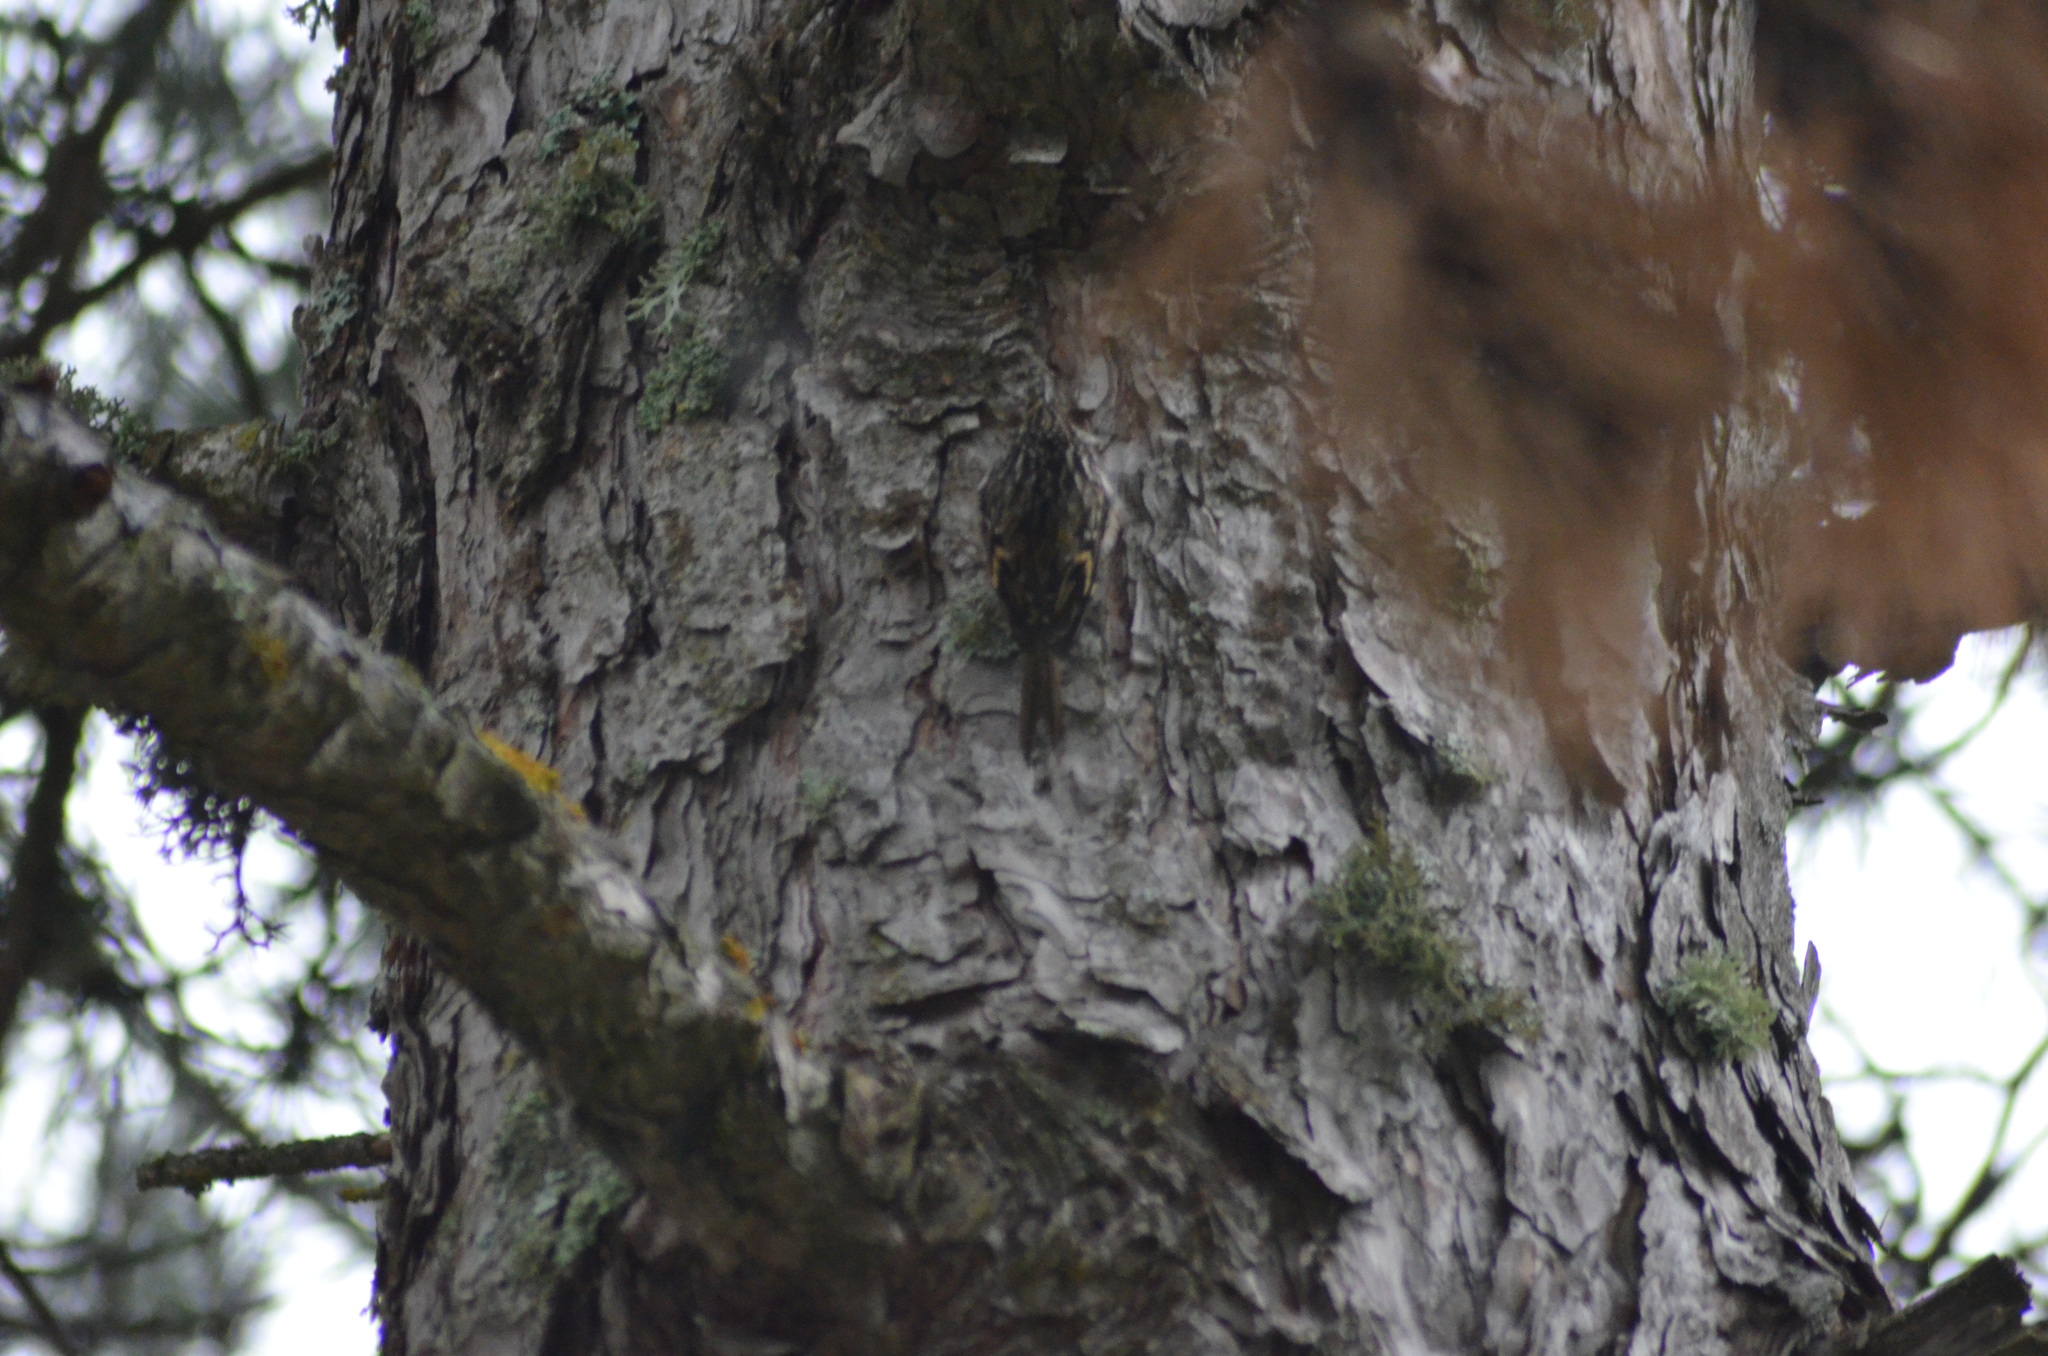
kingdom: Animalia
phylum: Chordata
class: Aves
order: Passeriformes
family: Certhiidae
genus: Certhia
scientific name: Certhia brachydactyla
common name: Short-toed treecreeper
